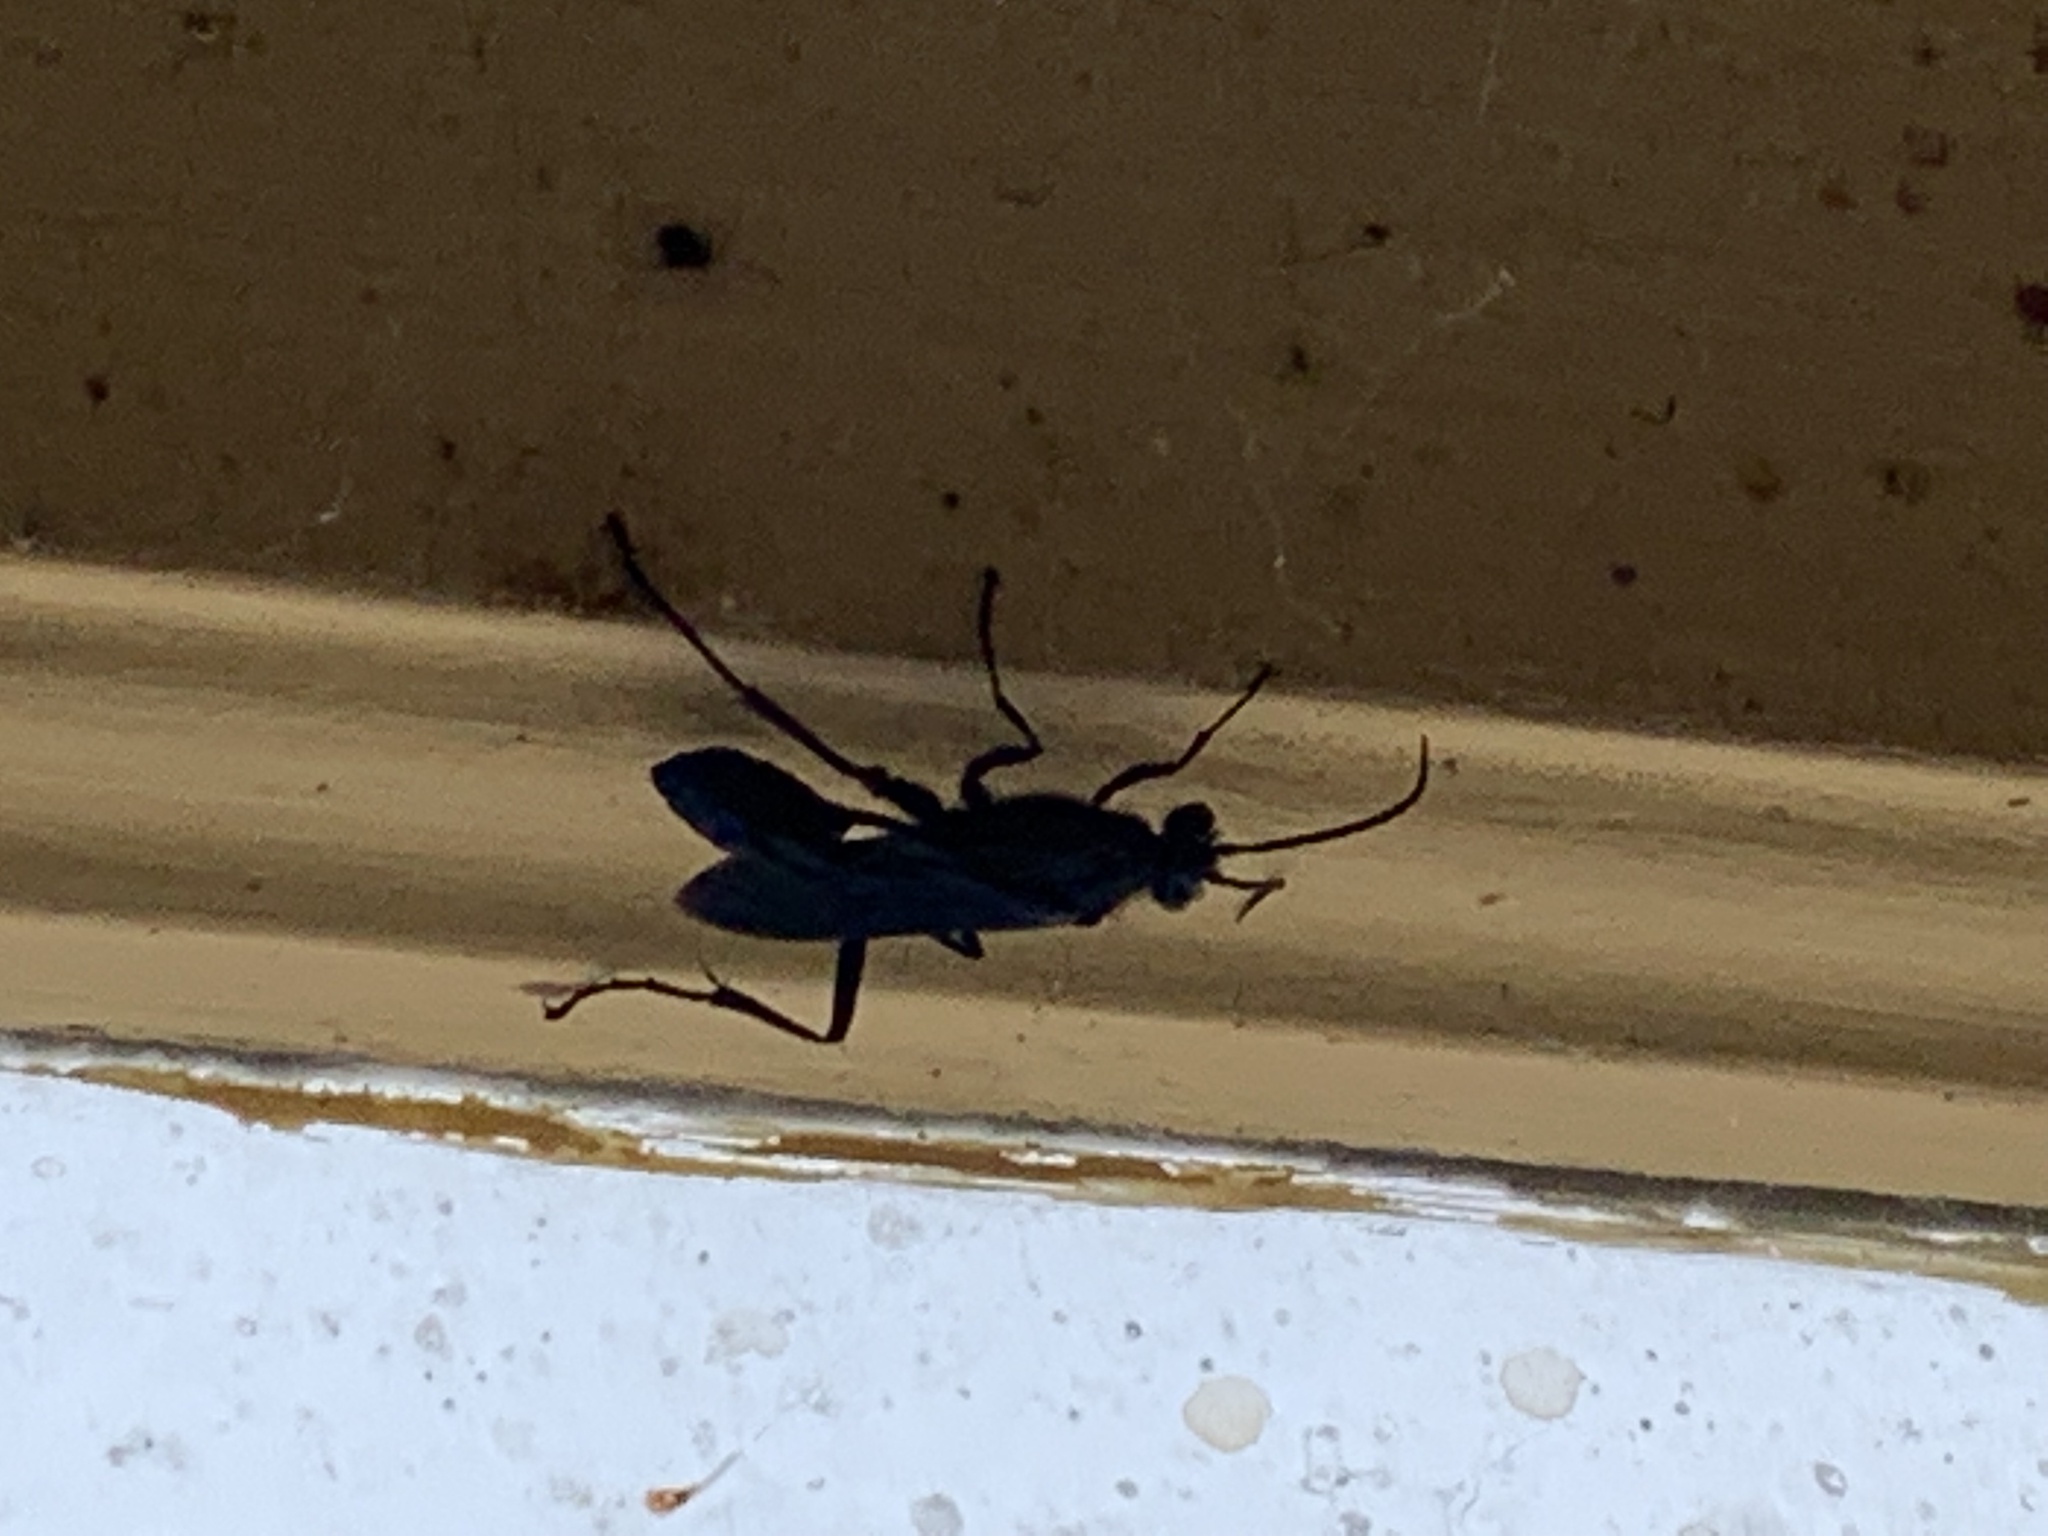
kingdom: Animalia
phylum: Arthropoda
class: Insecta
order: Hymenoptera
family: Sphecidae
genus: Chalybion
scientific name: Chalybion californicum
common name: Mud dauber
